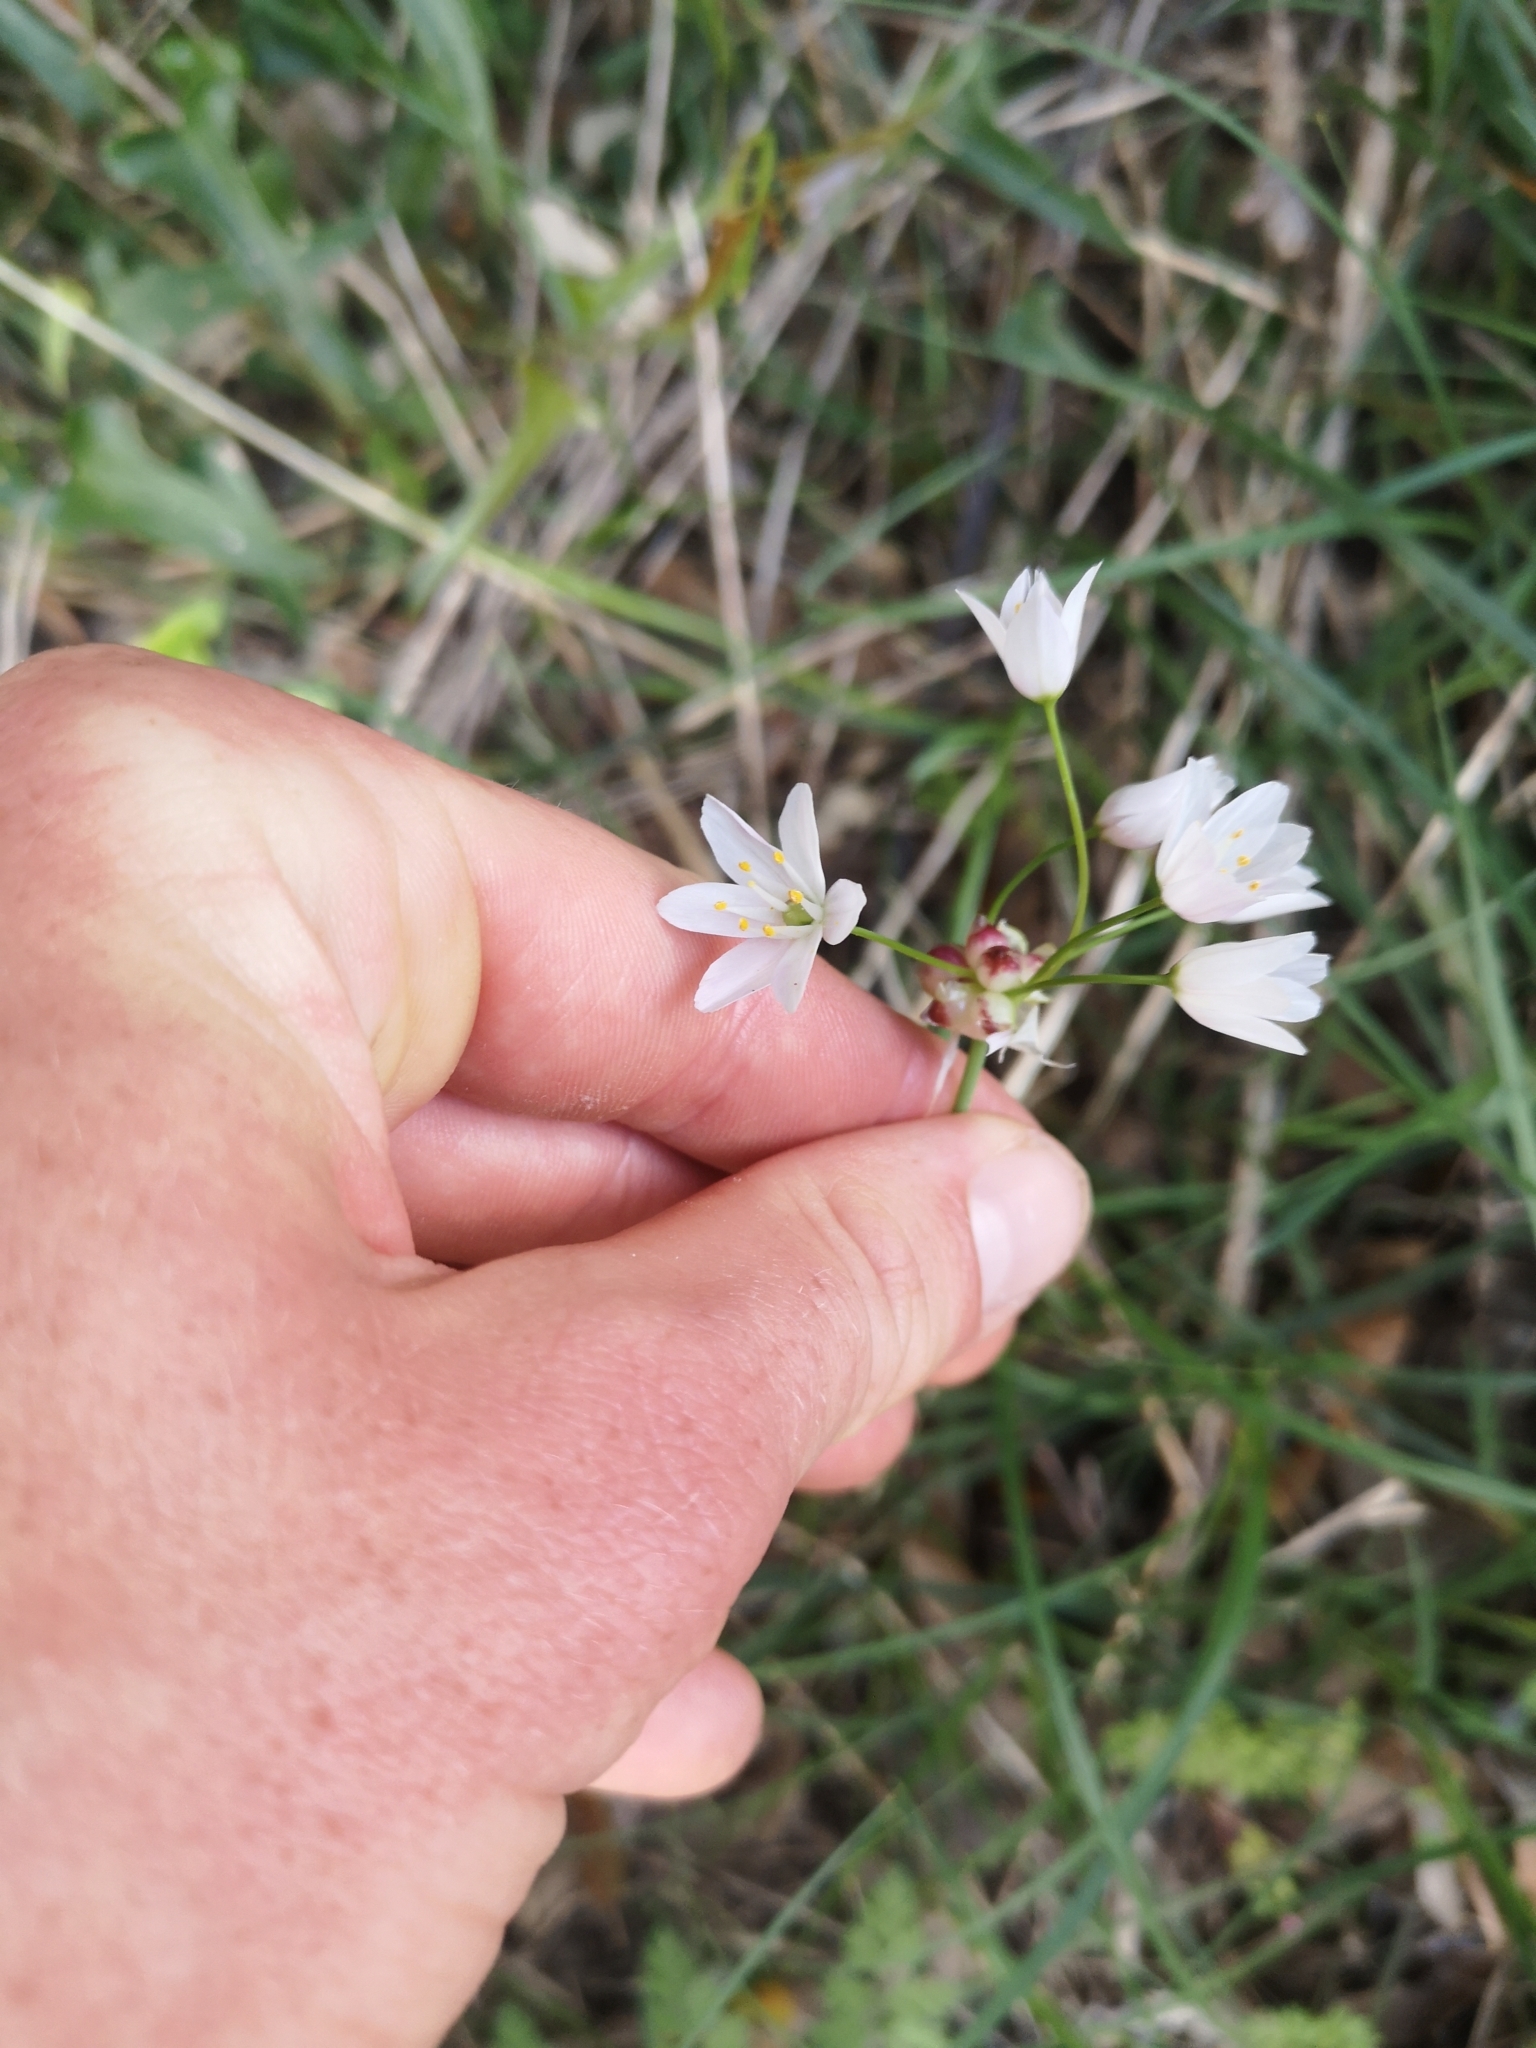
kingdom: Plantae
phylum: Tracheophyta
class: Liliopsida
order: Asparagales
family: Amaryllidaceae
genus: Allium
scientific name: Allium roseum
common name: Rosy garlic
